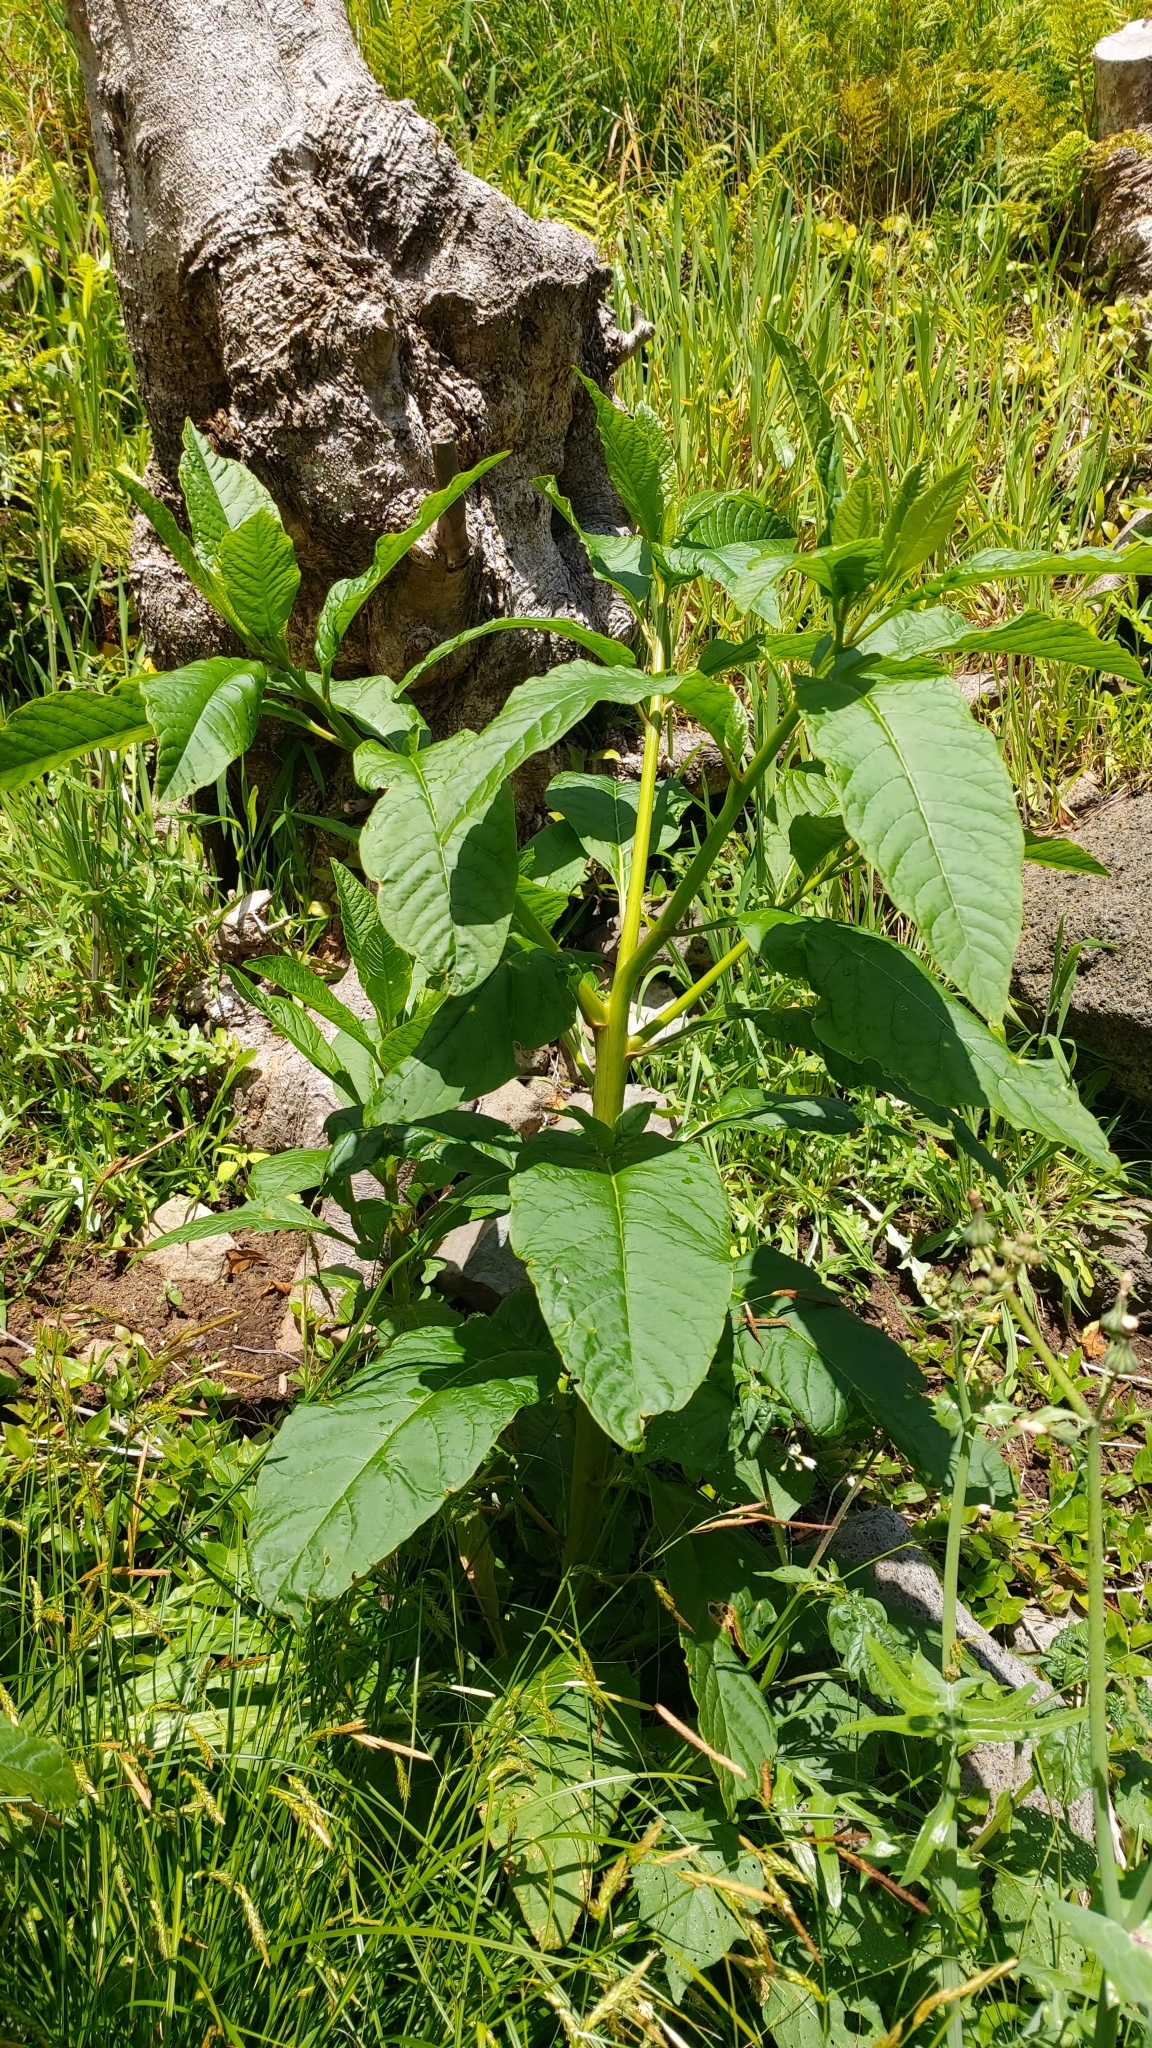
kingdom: Plantae
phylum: Tracheophyta
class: Magnoliopsida
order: Caryophyllales
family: Phytolaccaceae
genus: Phytolacca
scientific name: Phytolacca americana
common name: American pokeweed
